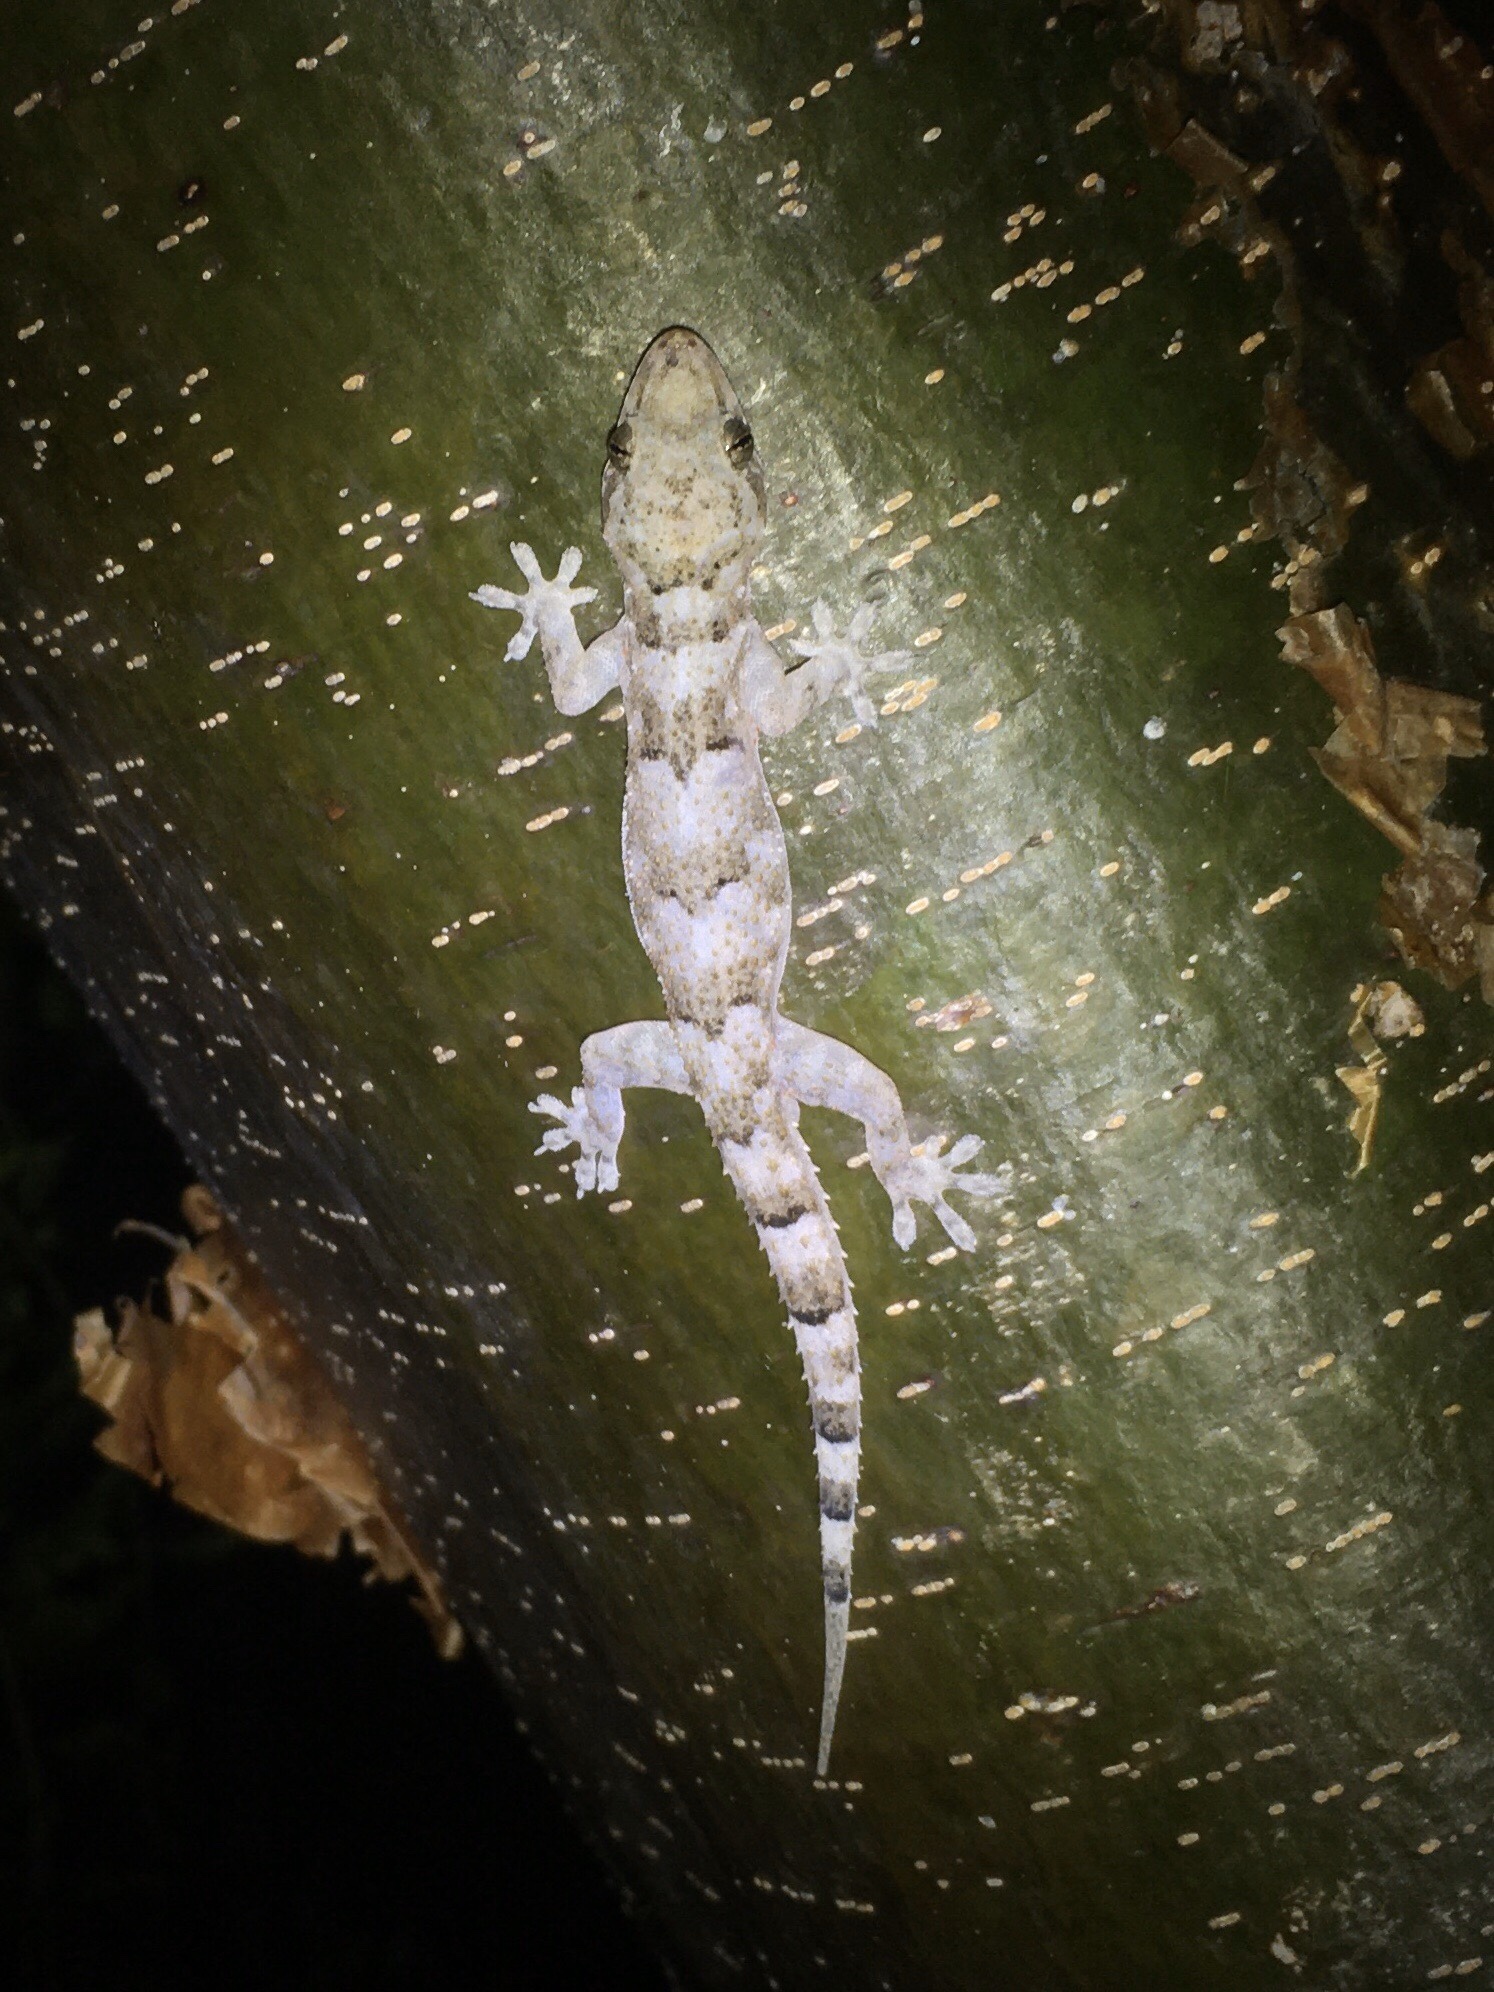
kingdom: Animalia
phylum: Chordata
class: Squamata
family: Gekkonidae
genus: Hemidactylus
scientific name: Hemidactylus mabouia
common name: House gecko
